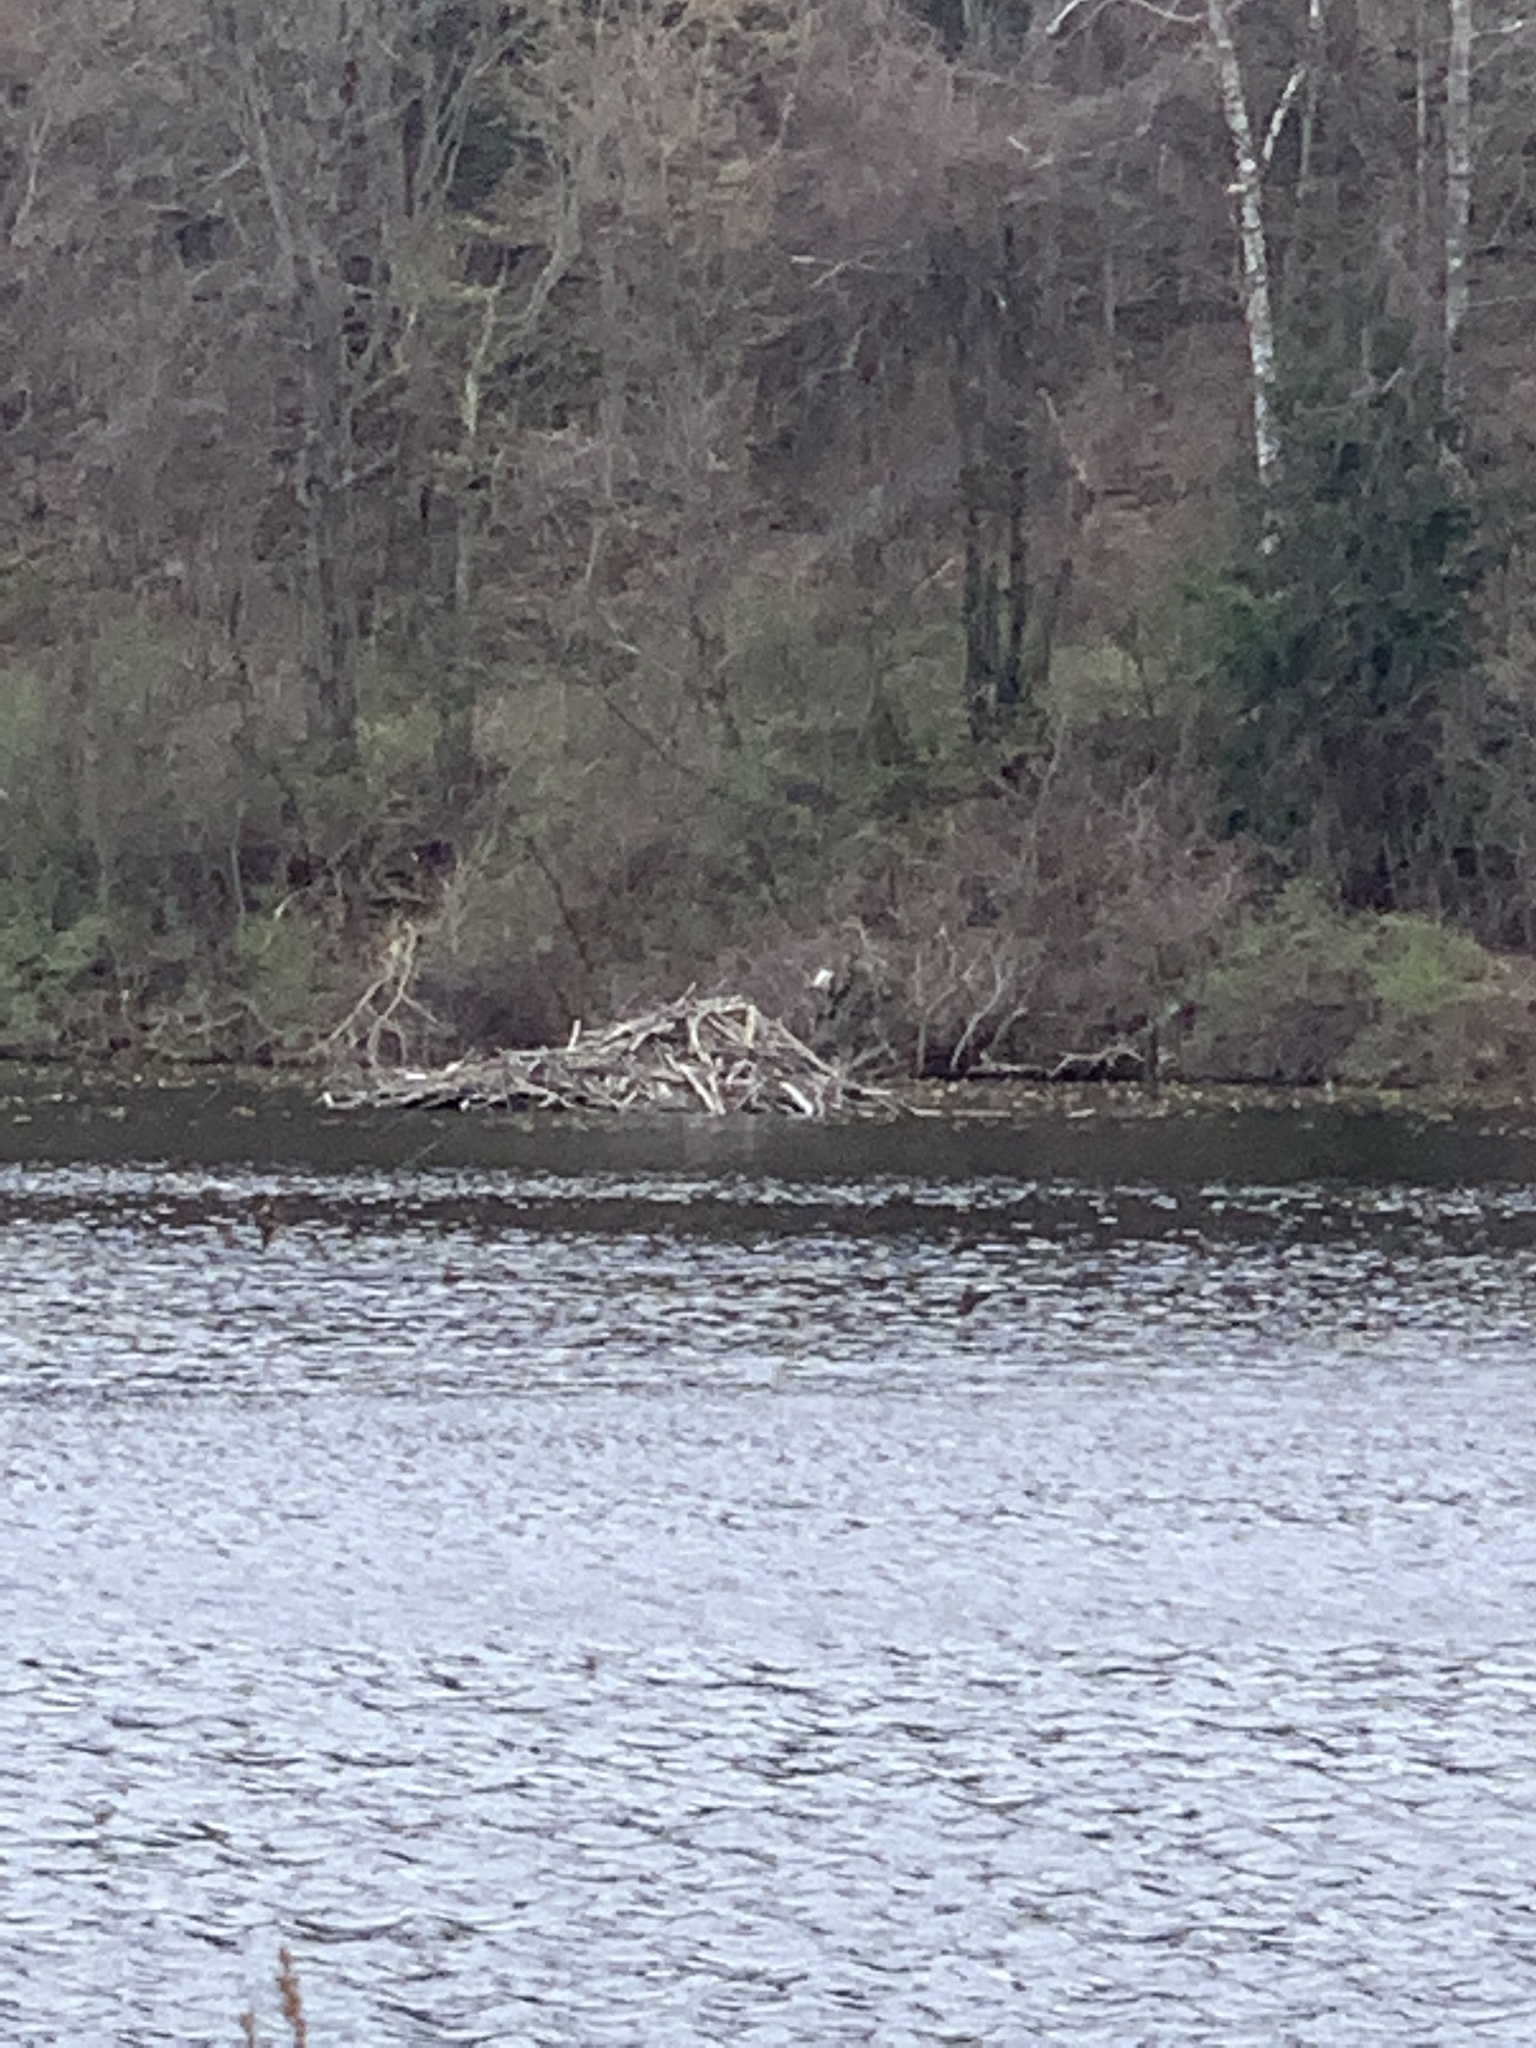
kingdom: Animalia
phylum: Chordata
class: Mammalia
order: Rodentia
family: Castoridae
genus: Castor
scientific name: Castor canadensis
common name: American beaver
